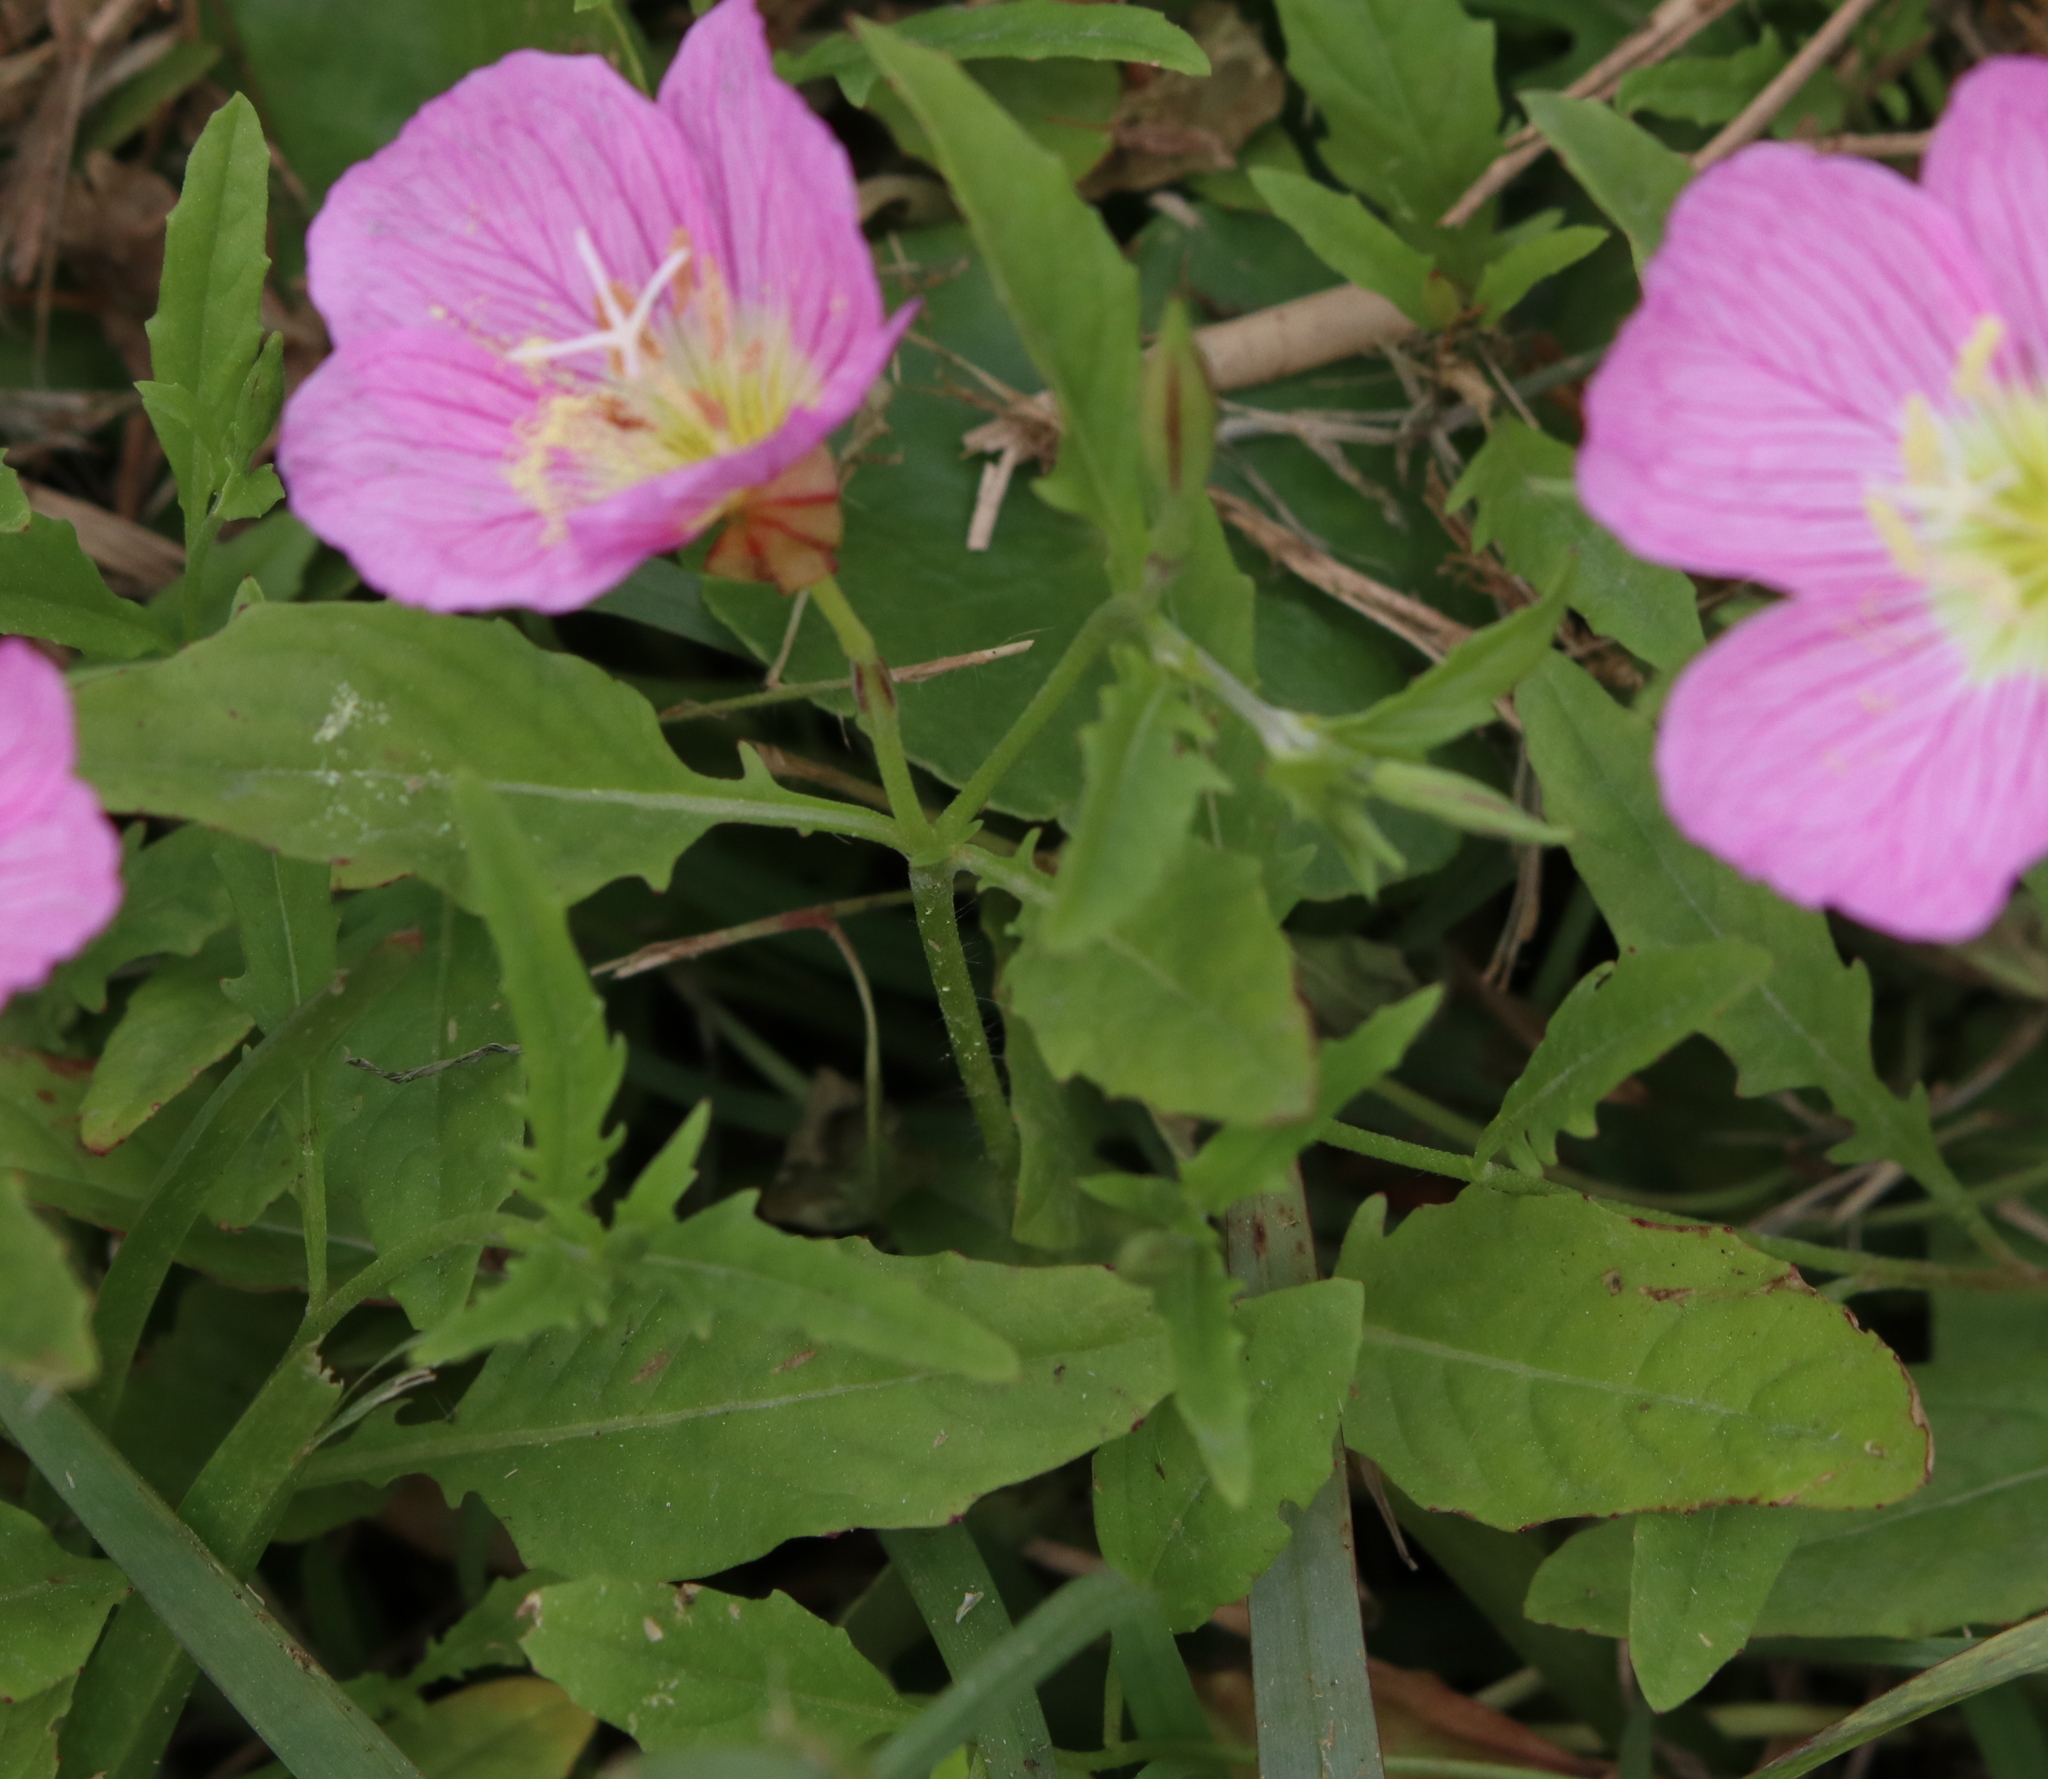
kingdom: Plantae
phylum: Tracheophyta
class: Magnoliopsida
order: Myrtales
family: Onagraceae
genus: Oenothera
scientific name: Oenothera speciosa
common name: White evening-primrose
